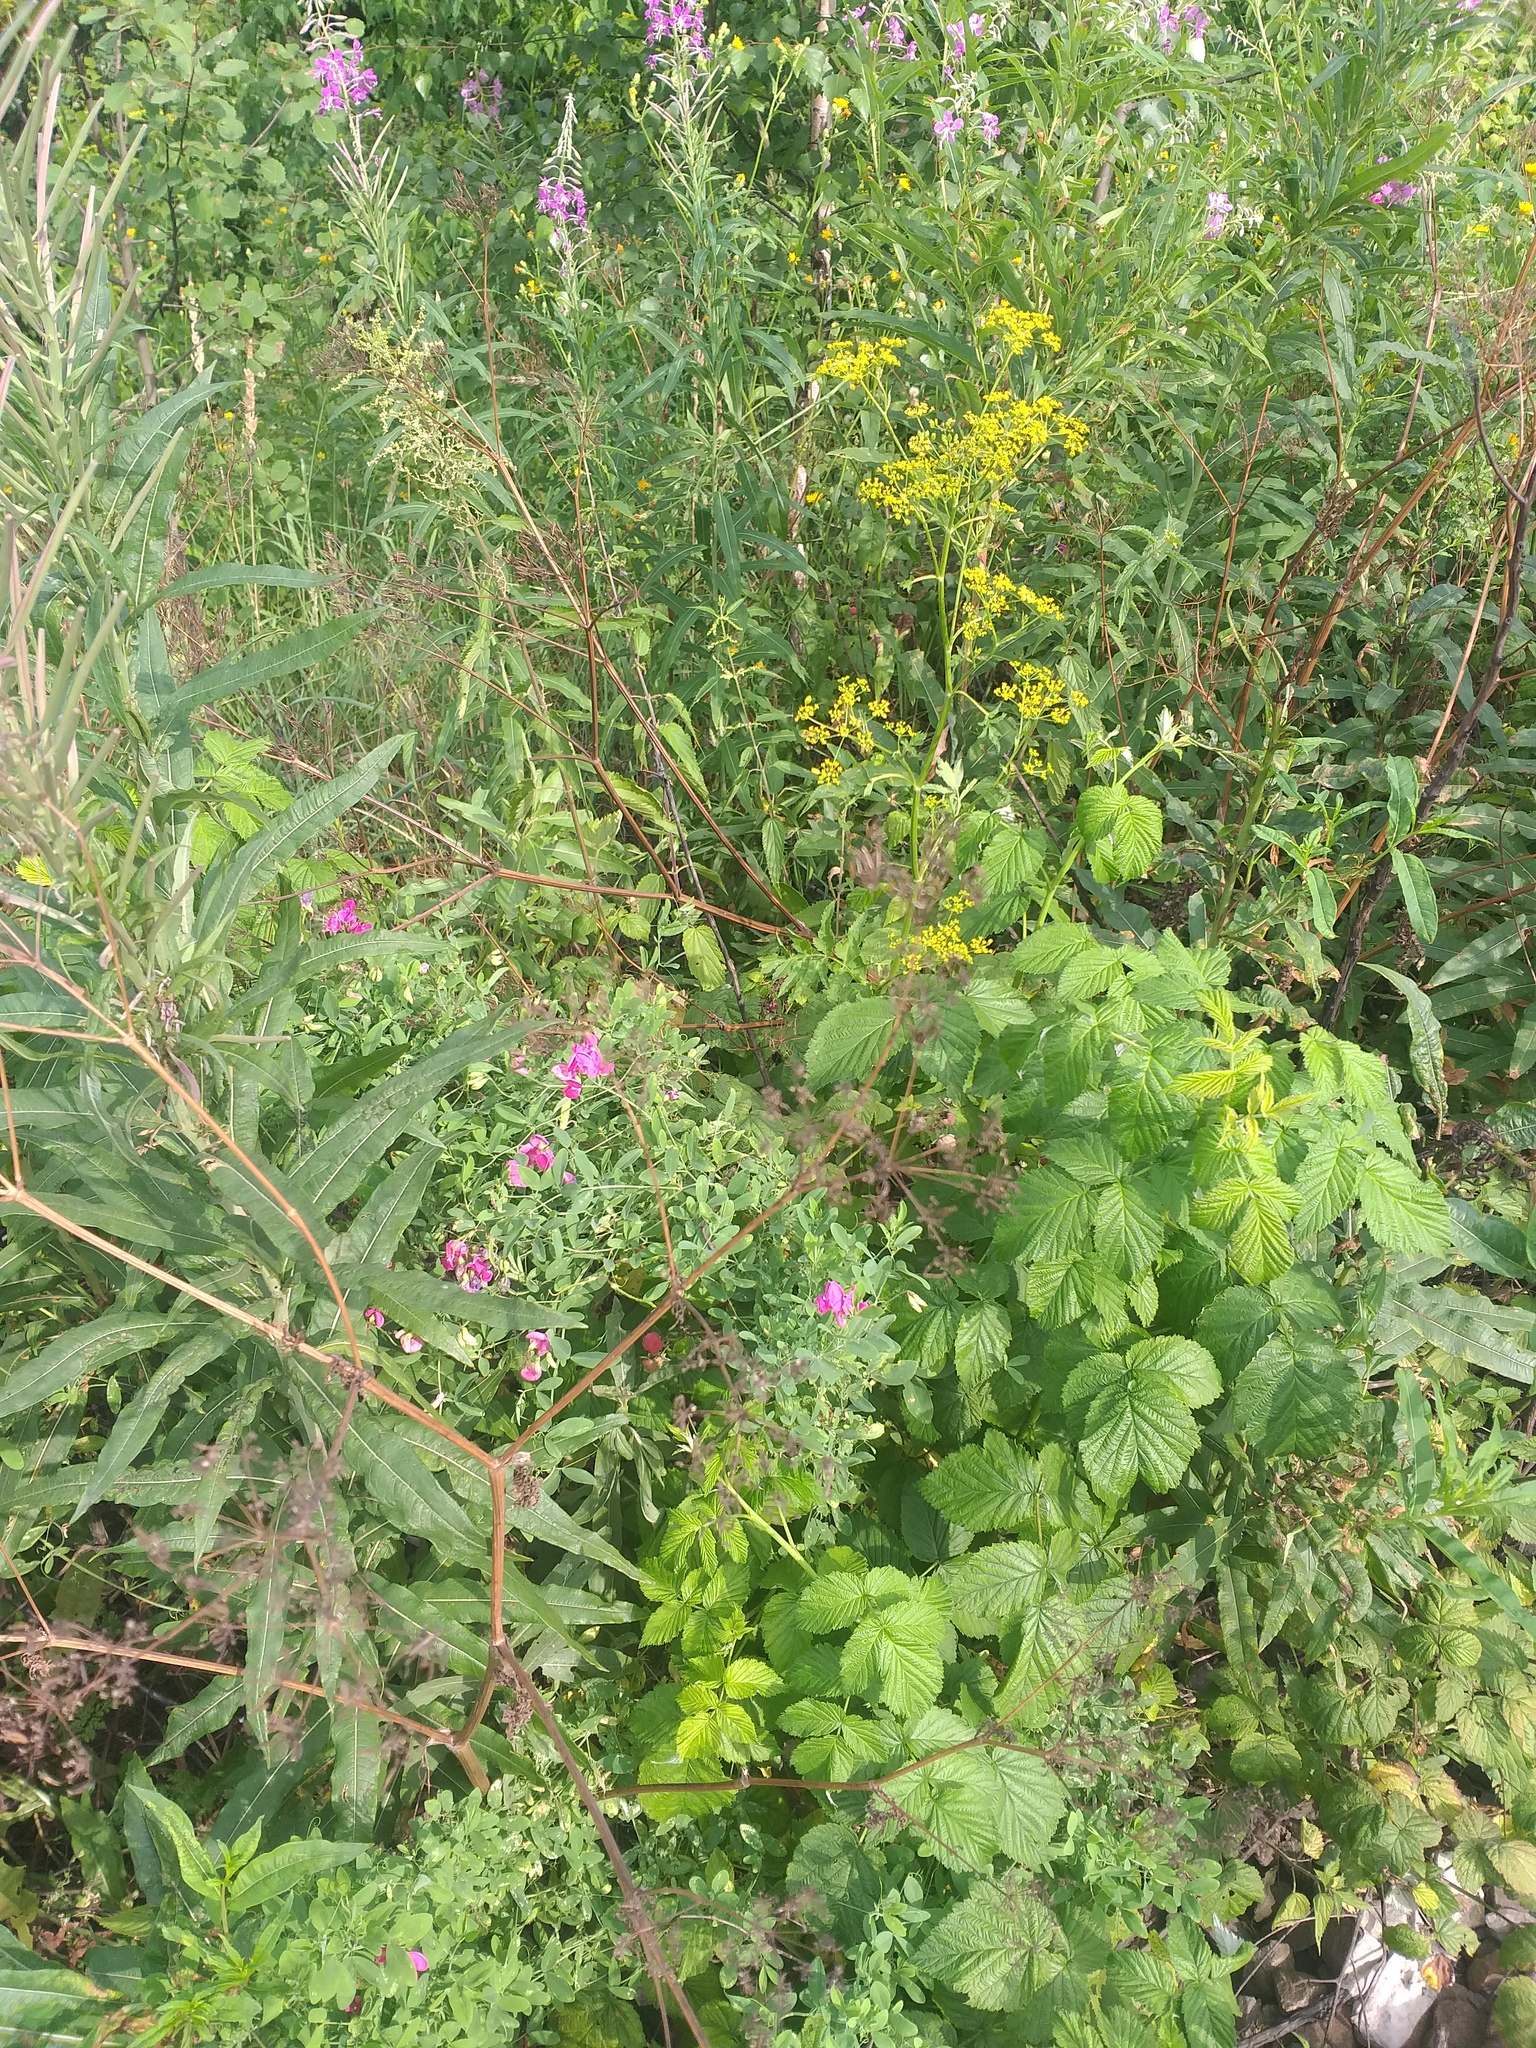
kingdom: Plantae
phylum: Tracheophyta
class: Magnoliopsida
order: Fabales
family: Fabaceae
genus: Lathyrus
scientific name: Lathyrus tuberosus
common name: Tuberous pea
